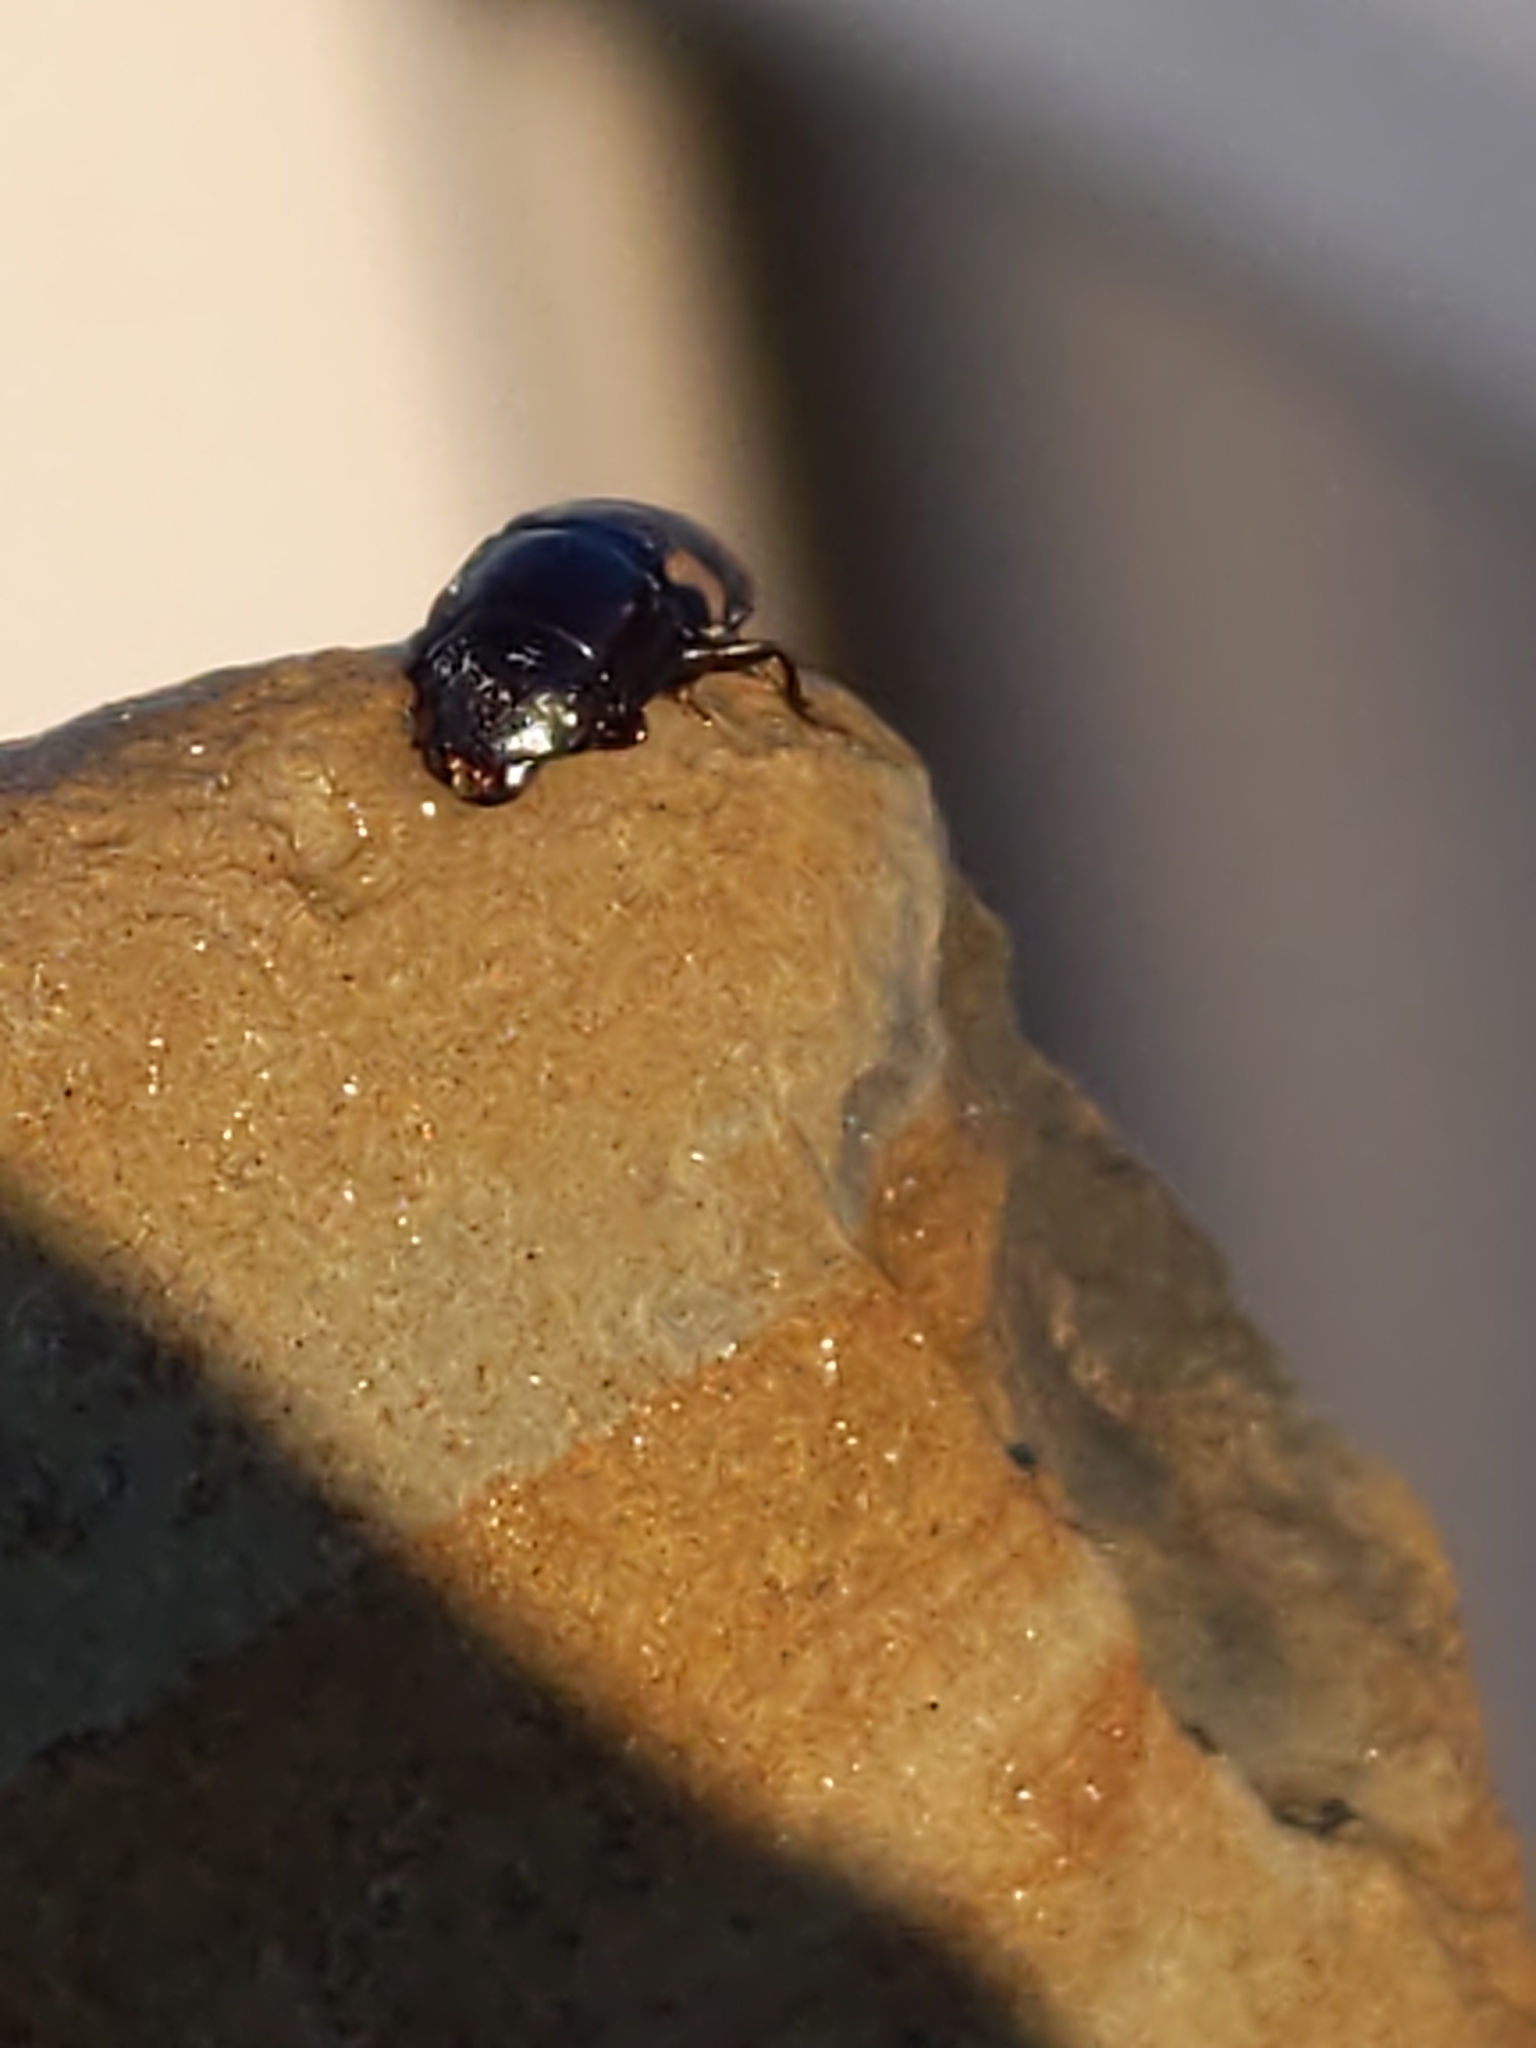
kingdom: Animalia
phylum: Arthropoda
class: Insecta
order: Coleoptera
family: Nitidulidae
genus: Glischrochilus
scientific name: Glischrochilus quadrisignatus
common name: Picnic beetle
